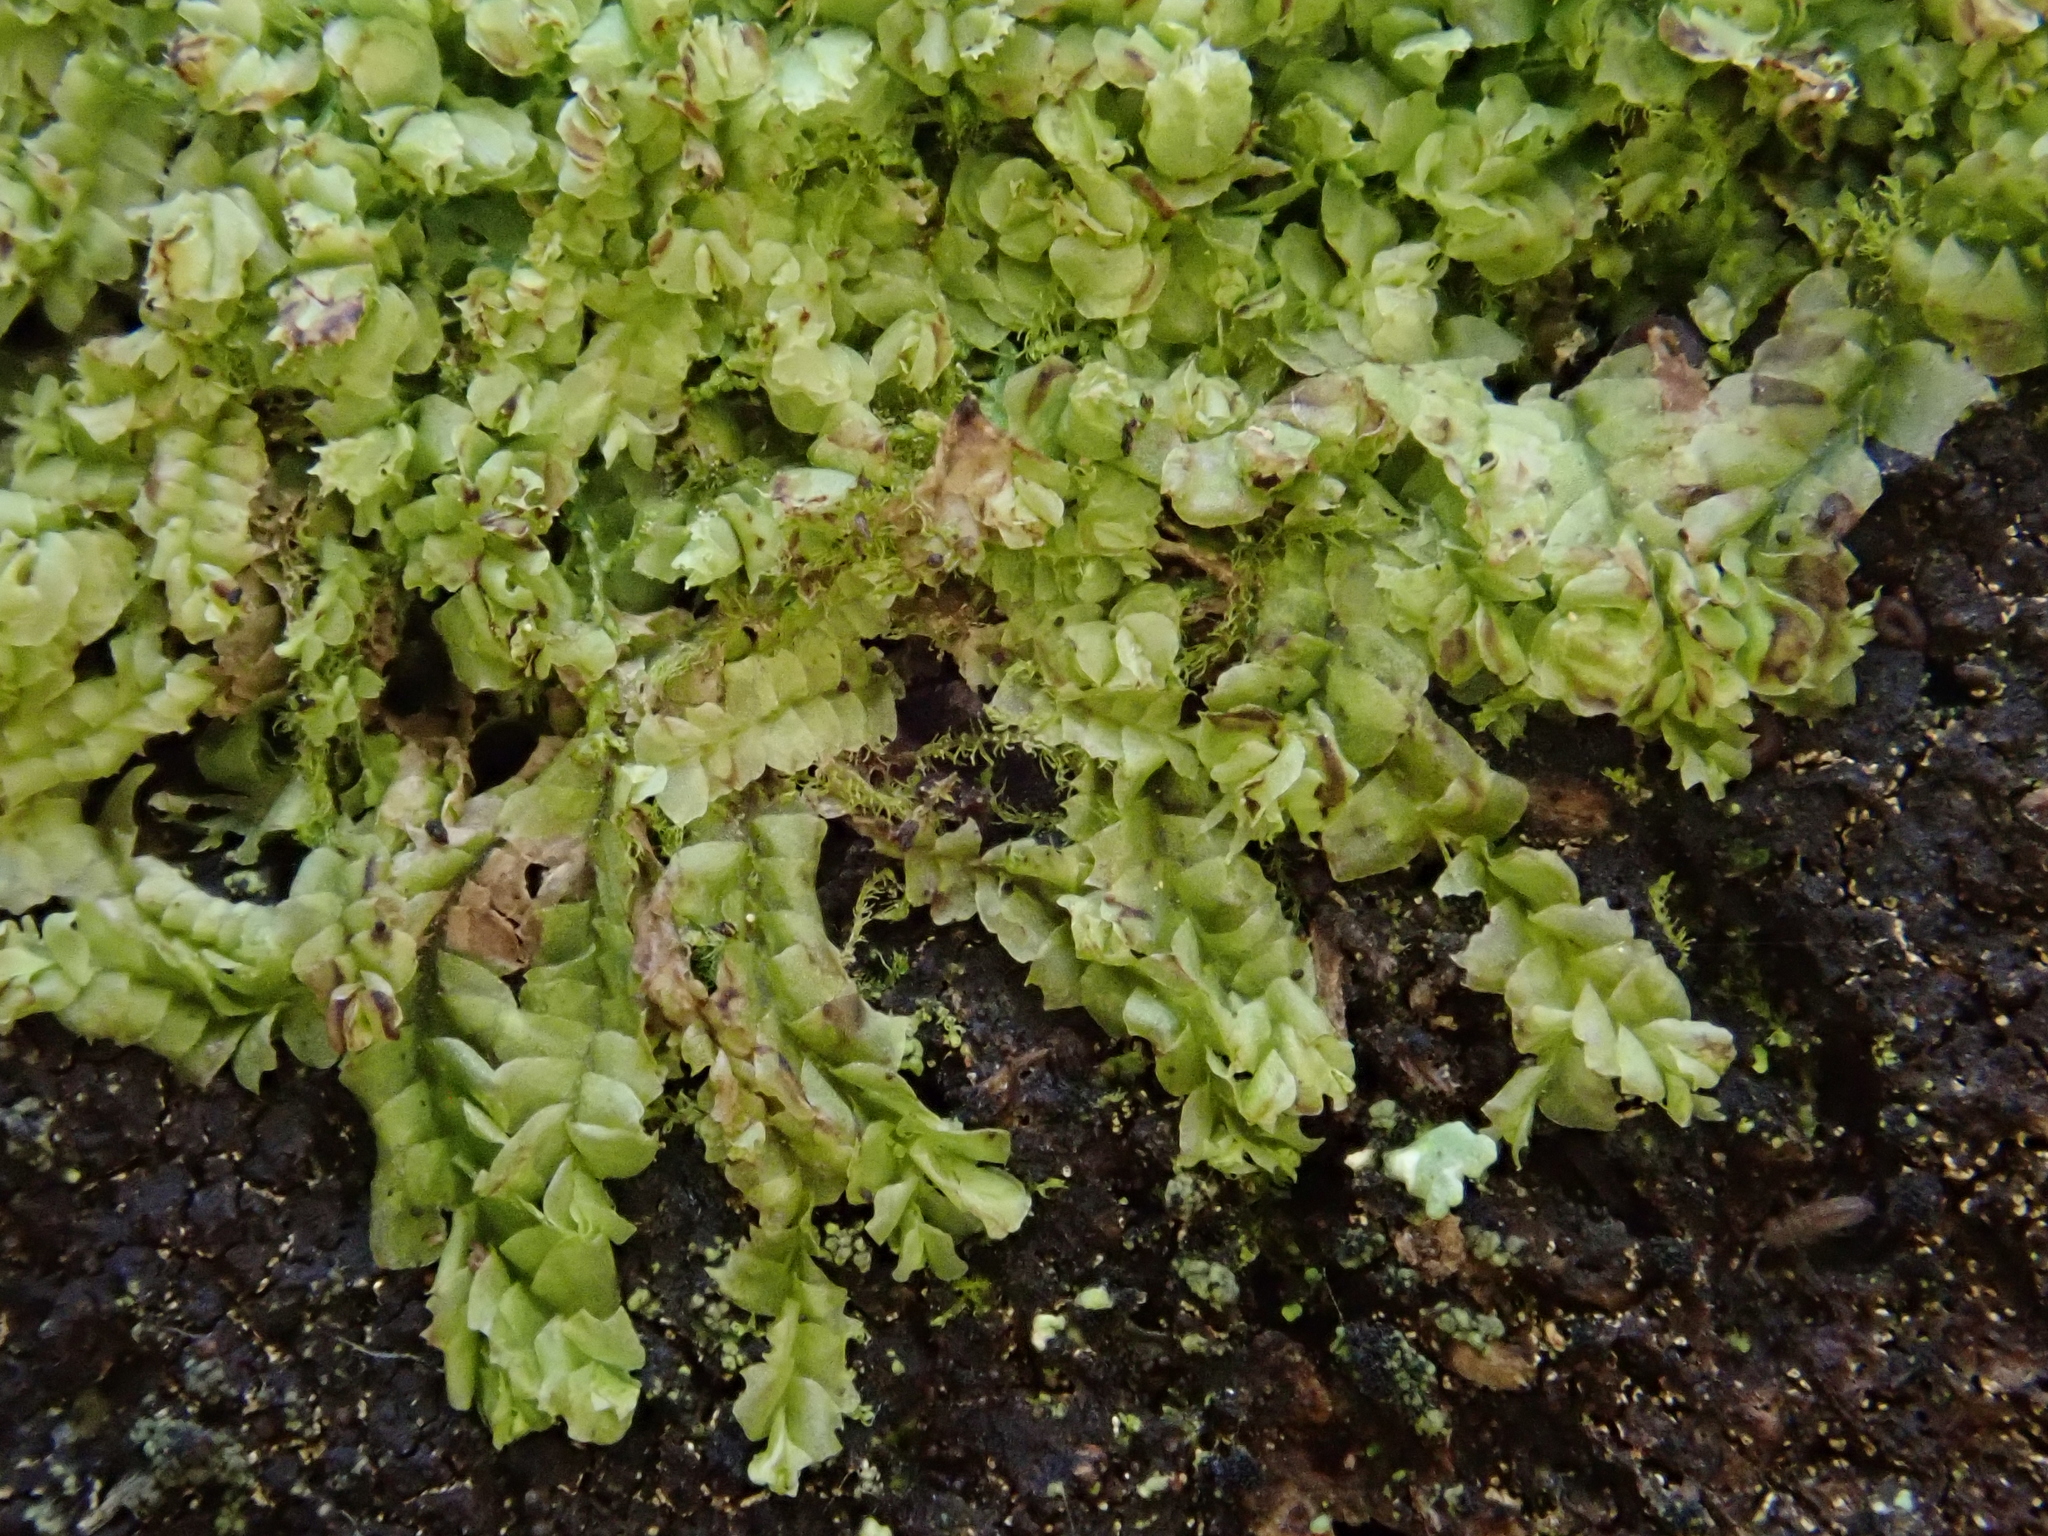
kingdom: Plantae
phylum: Marchantiophyta
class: Jungermanniopsida
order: Jungermanniales
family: Lophocoleaceae
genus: Lophocolea
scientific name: Lophocolea heterophylla
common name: Variable-leaved crestwort
